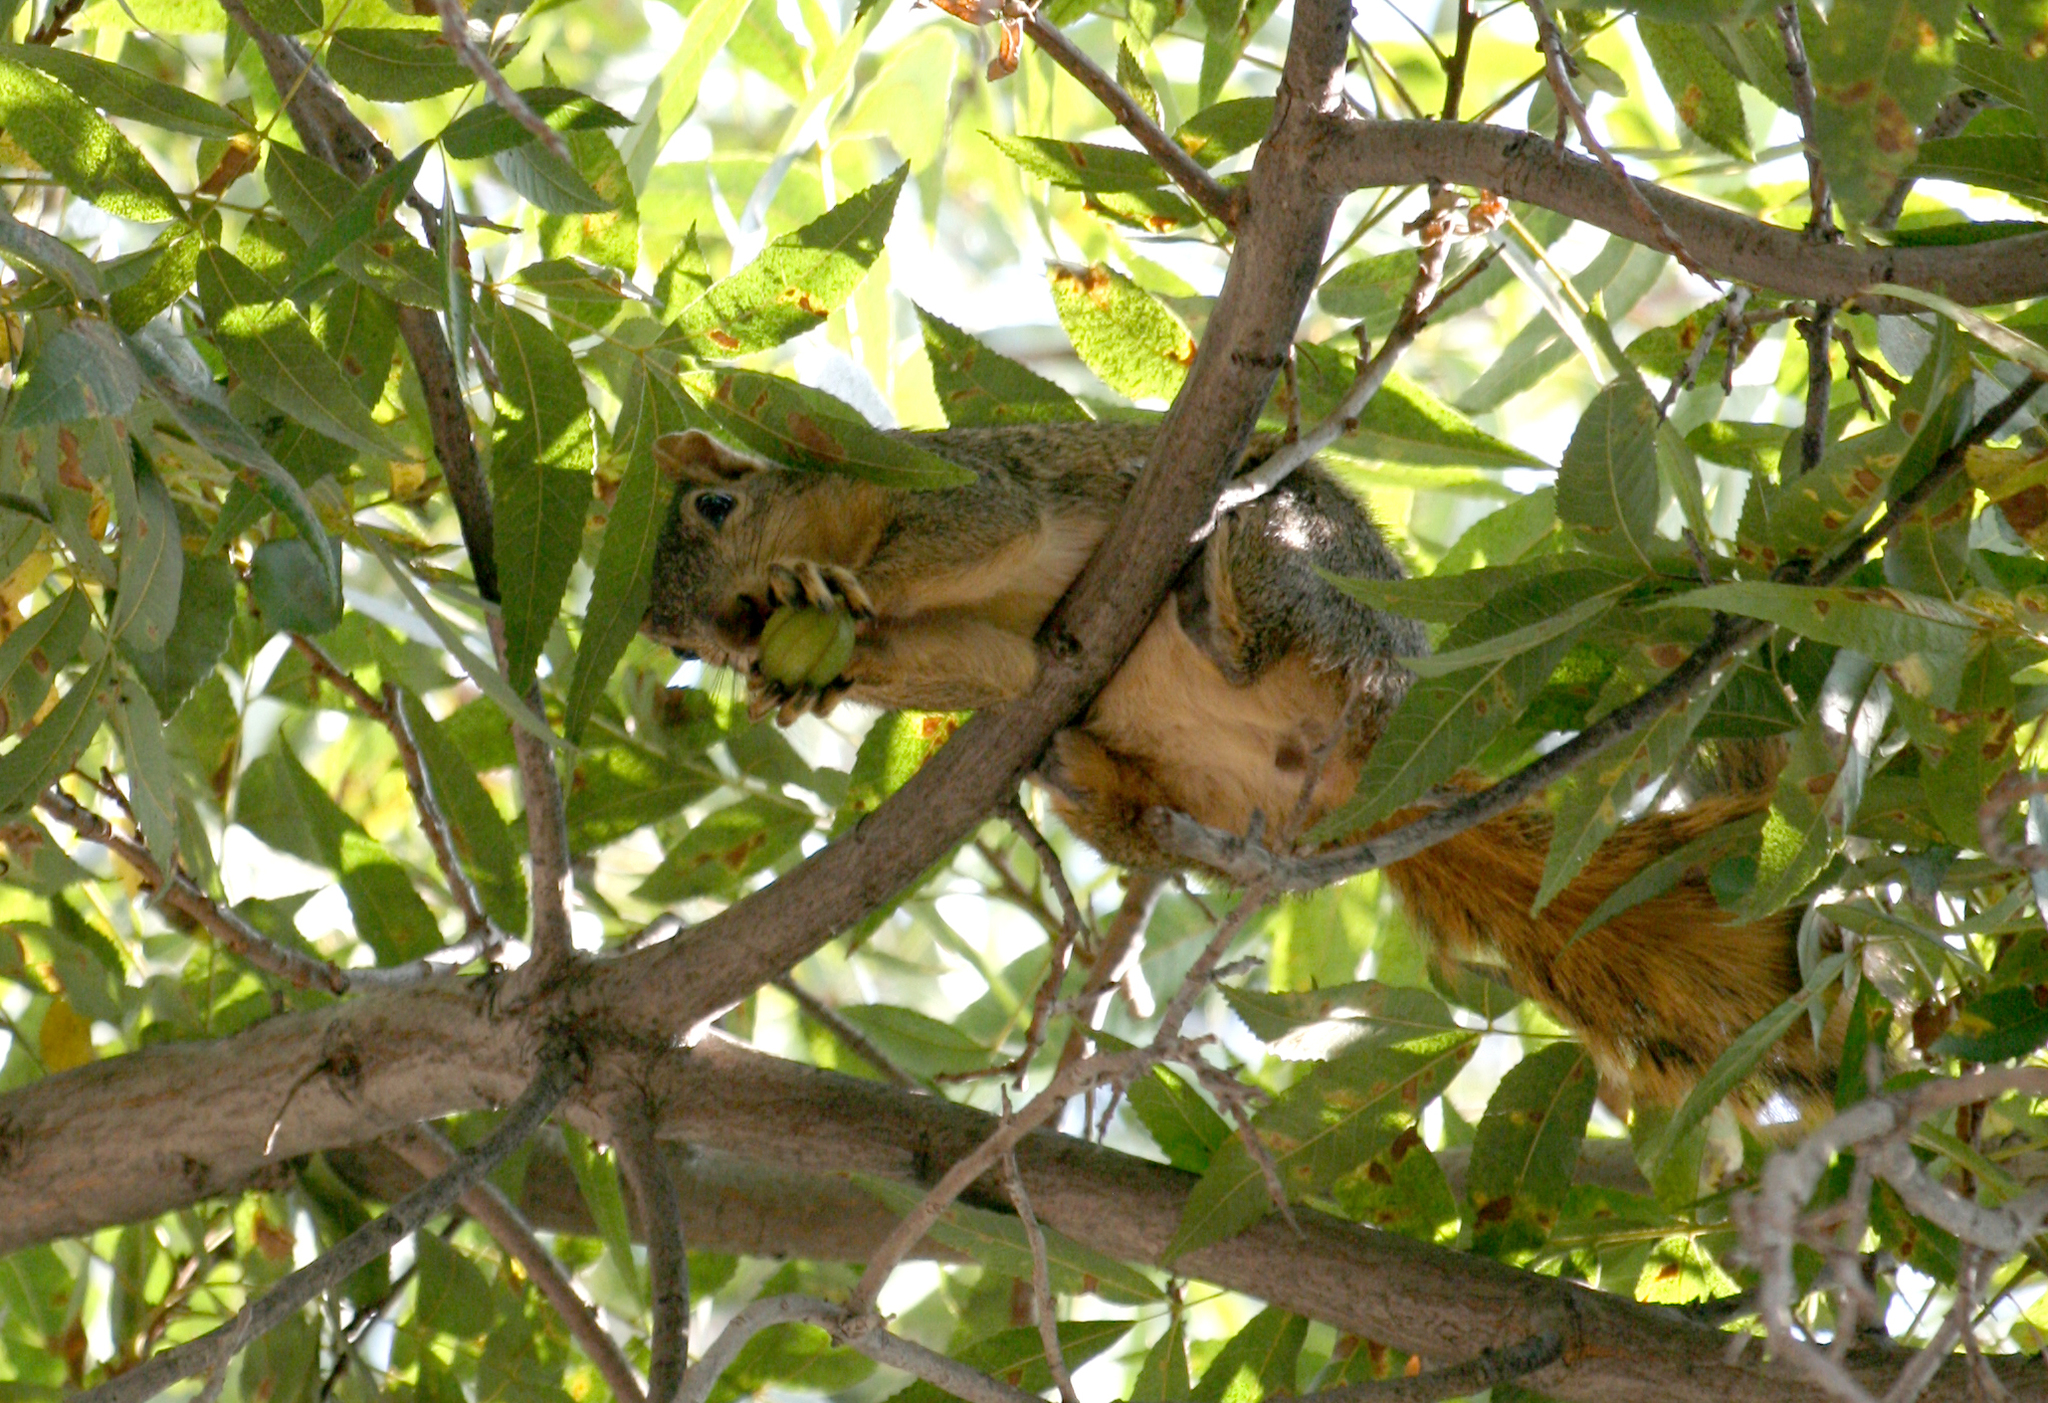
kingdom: Animalia
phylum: Chordata
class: Mammalia
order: Rodentia
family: Sciuridae
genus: Sciurus
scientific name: Sciurus niger
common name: Fox squirrel
